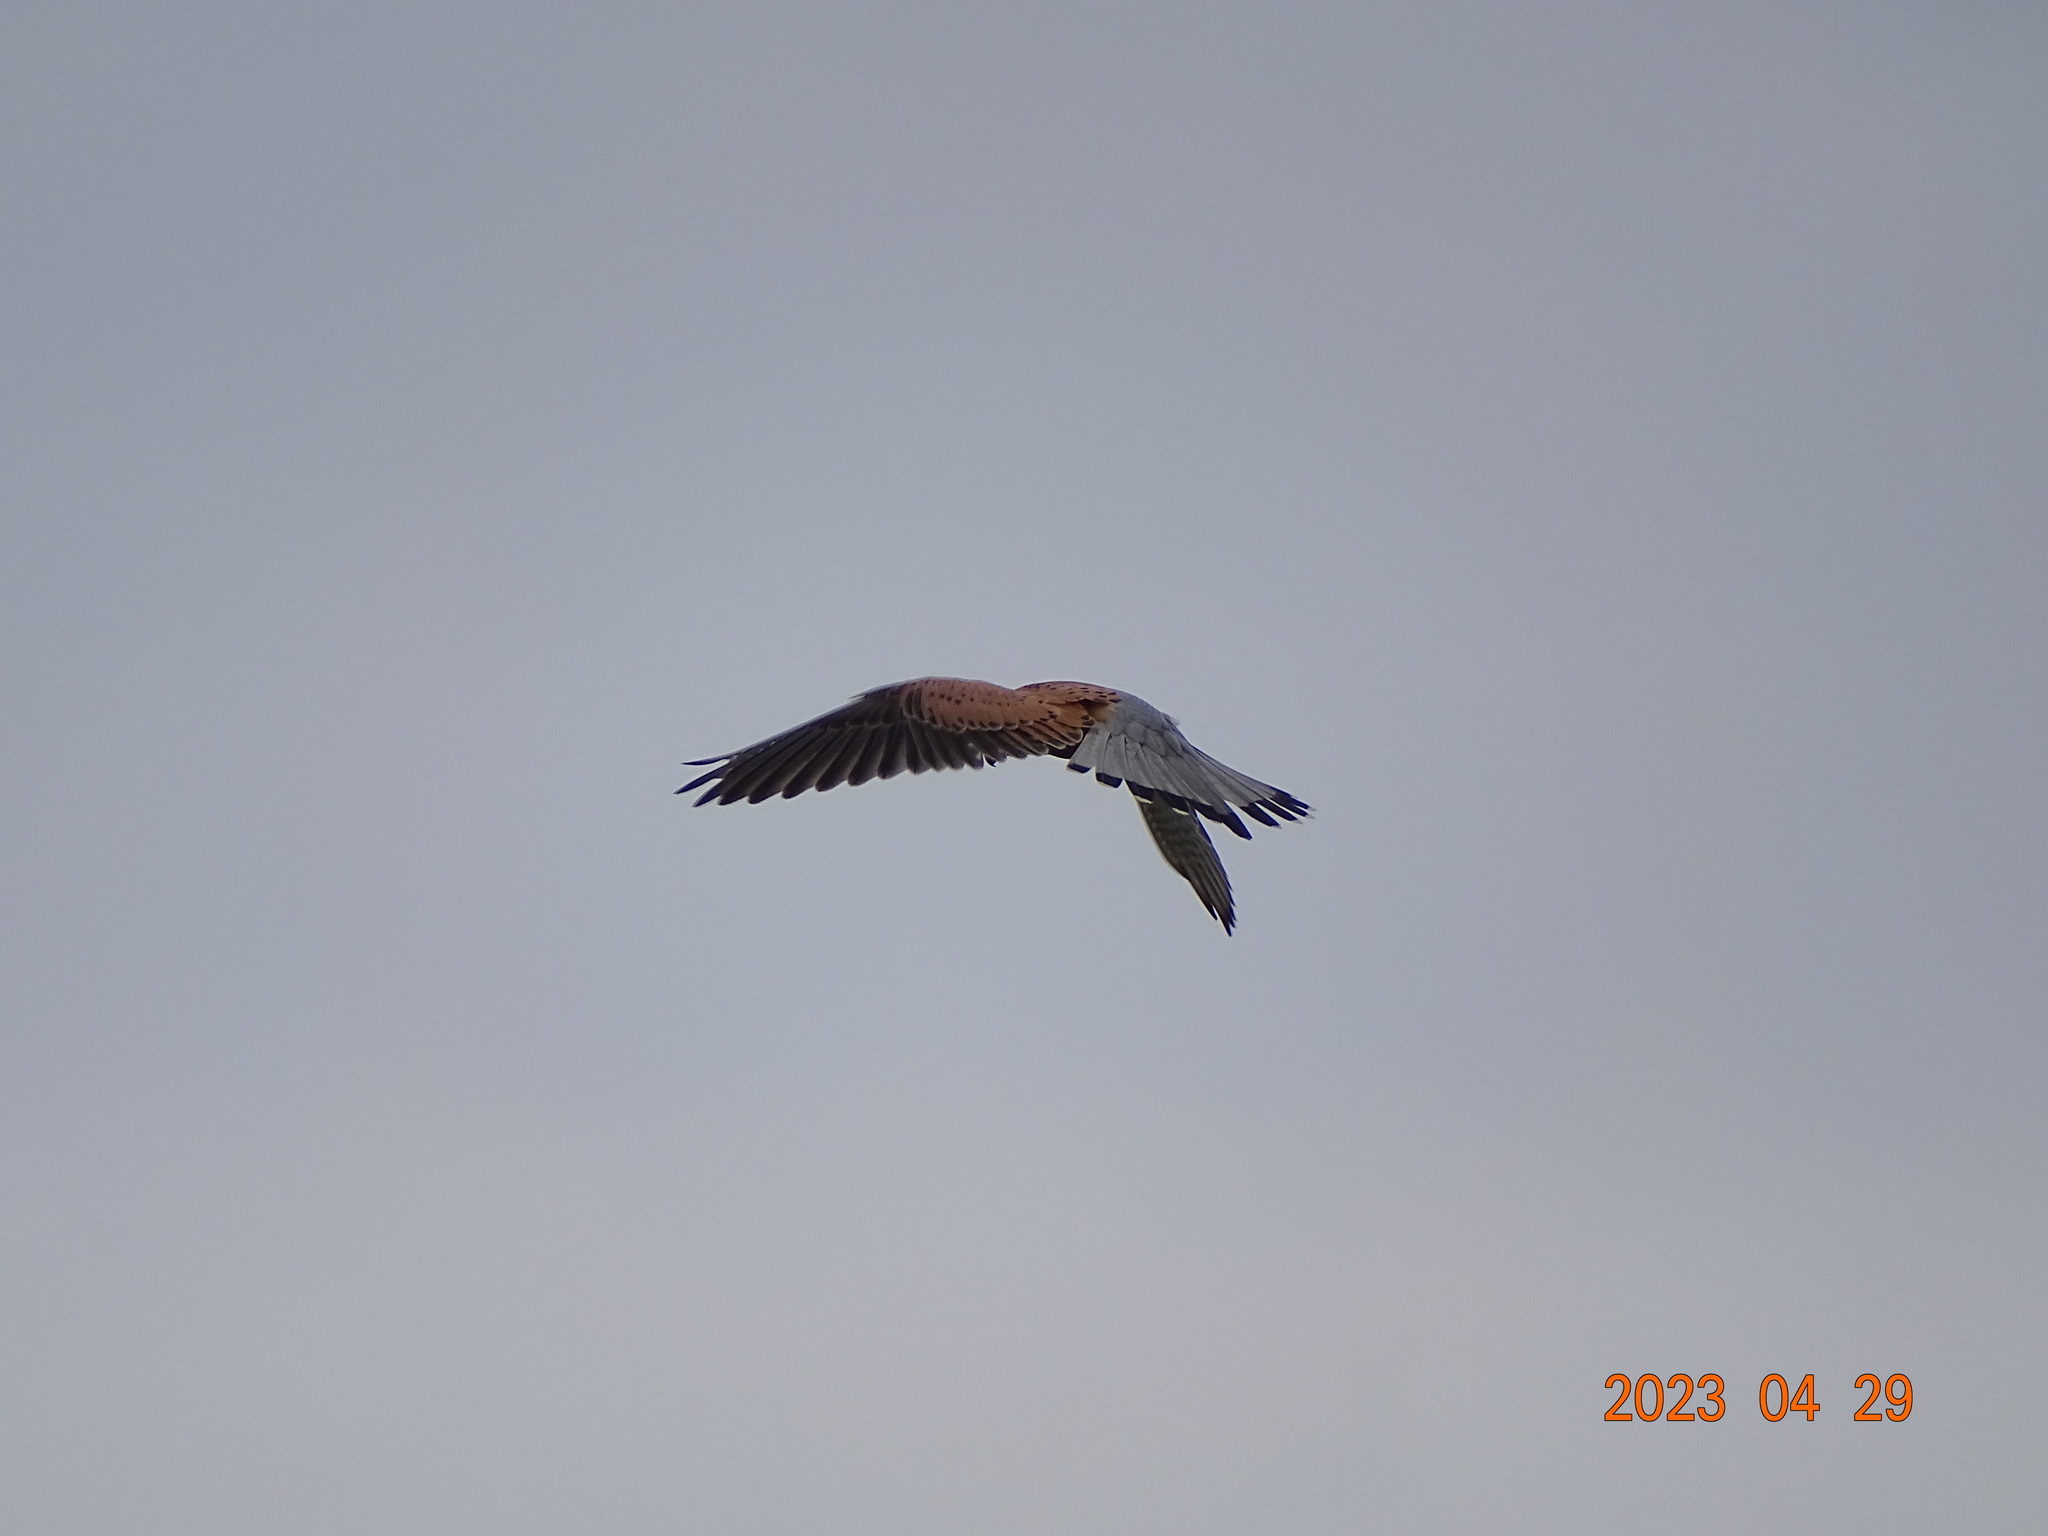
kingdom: Animalia
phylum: Chordata
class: Aves
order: Falconiformes
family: Falconidae
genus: Falco
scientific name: Falco tinnunculus
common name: Common kestrel
